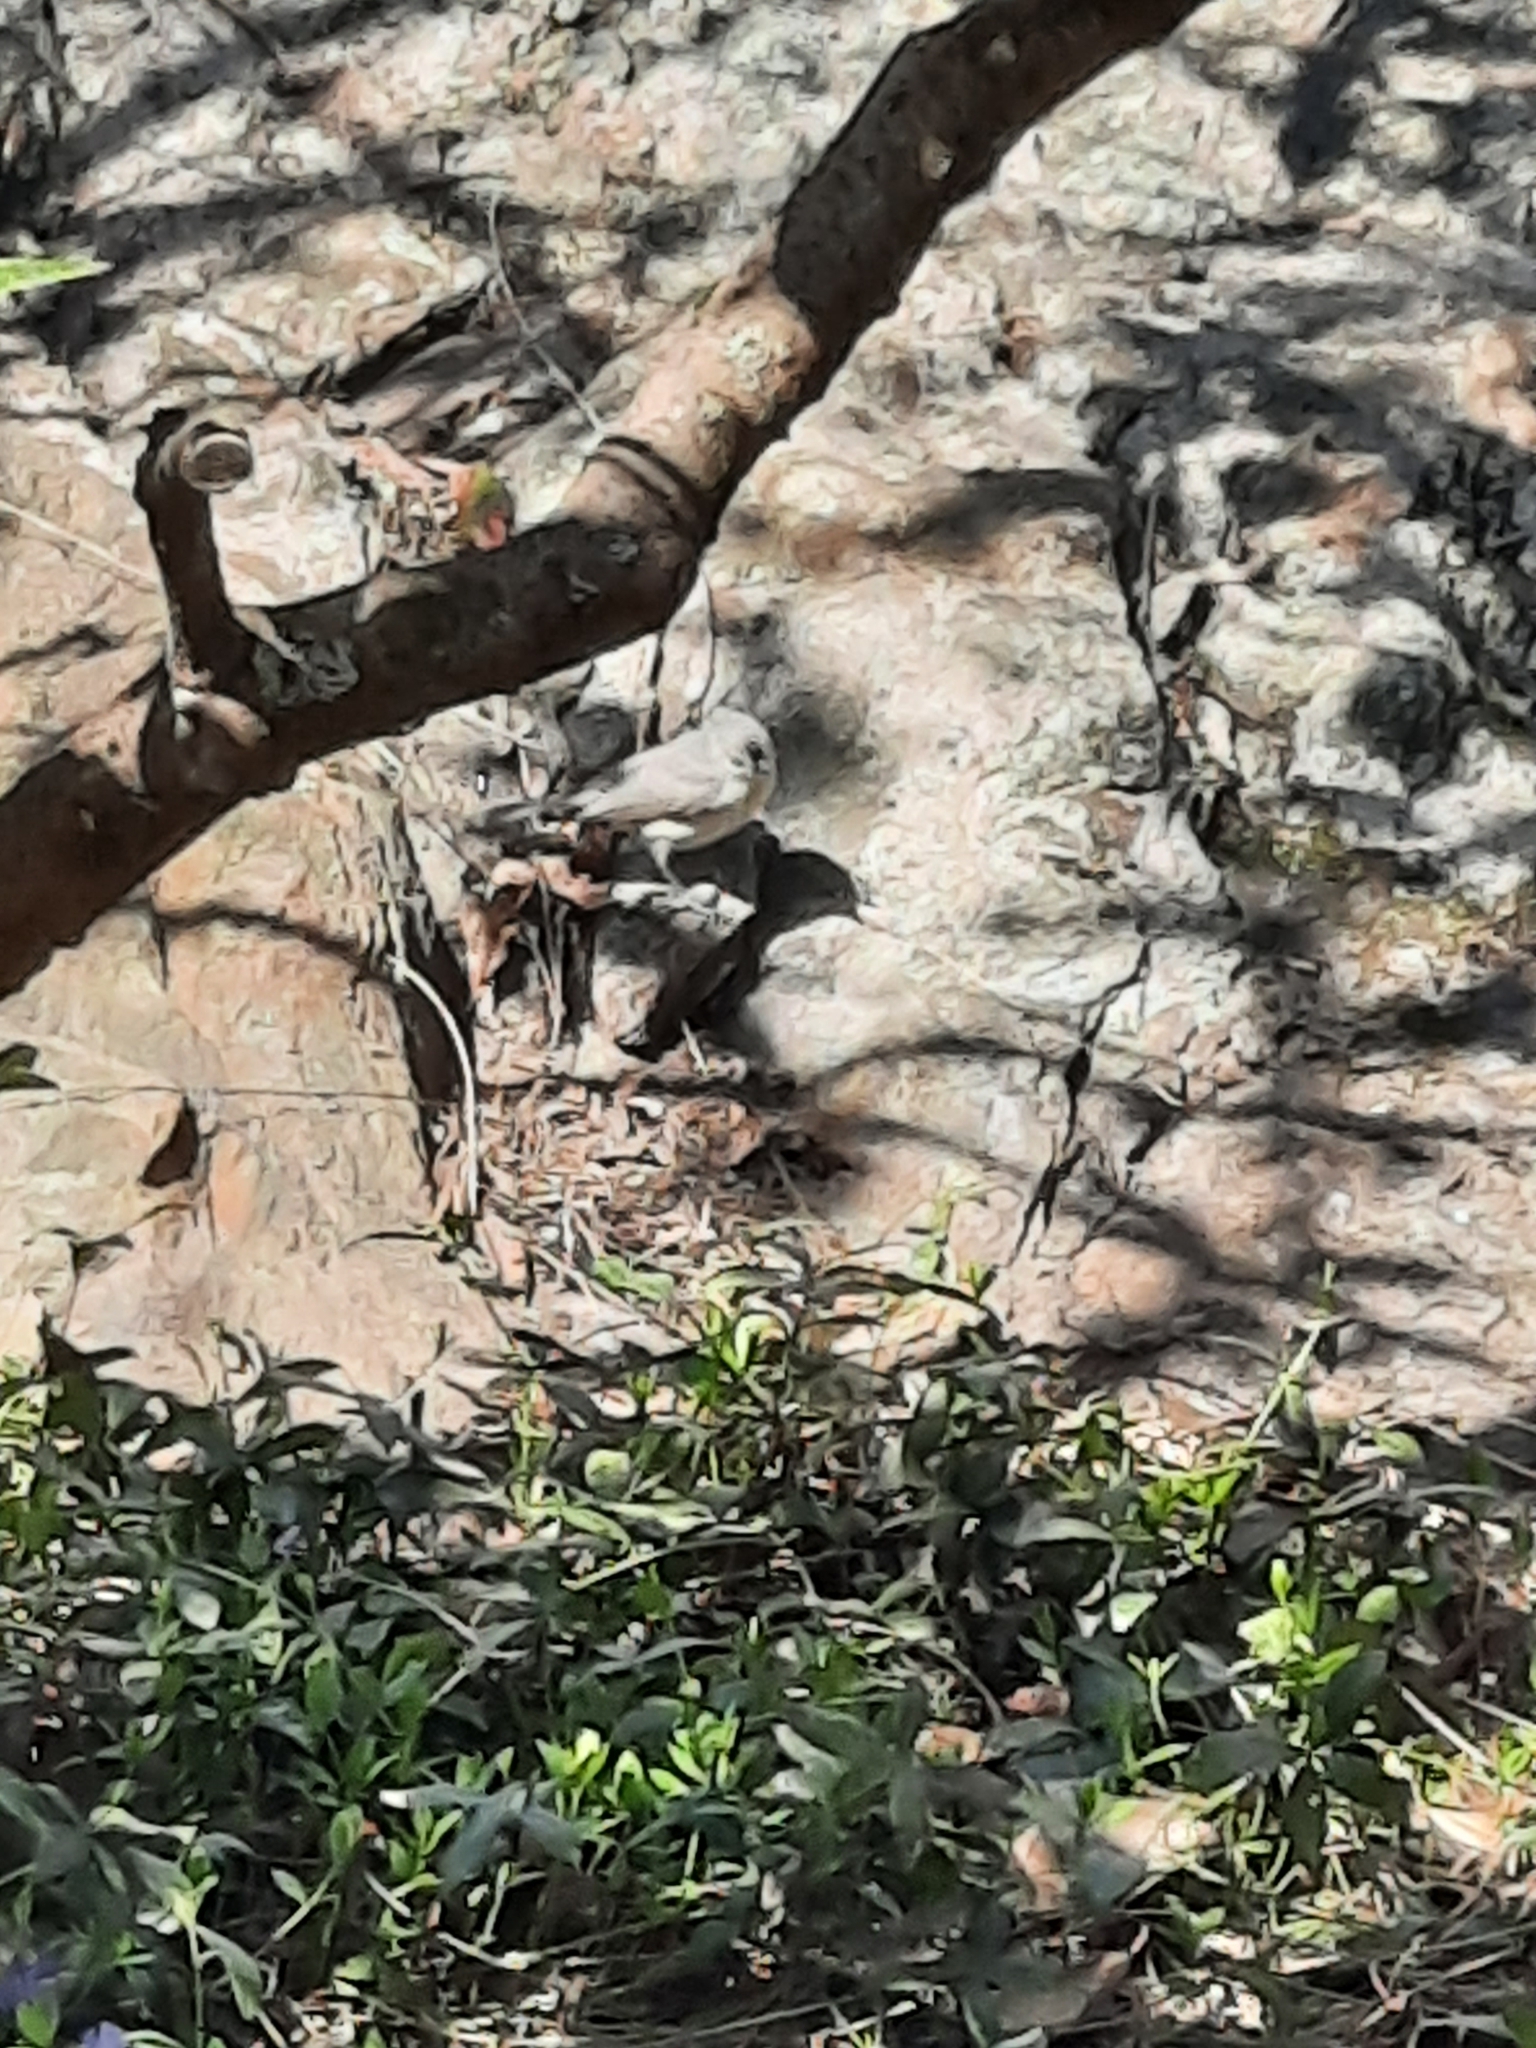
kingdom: Animalia
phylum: Chordata
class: Aves
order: Passeriformes
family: Paridae
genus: Baeolophus
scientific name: Baeolophus bicolor
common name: Tufted titmouse
